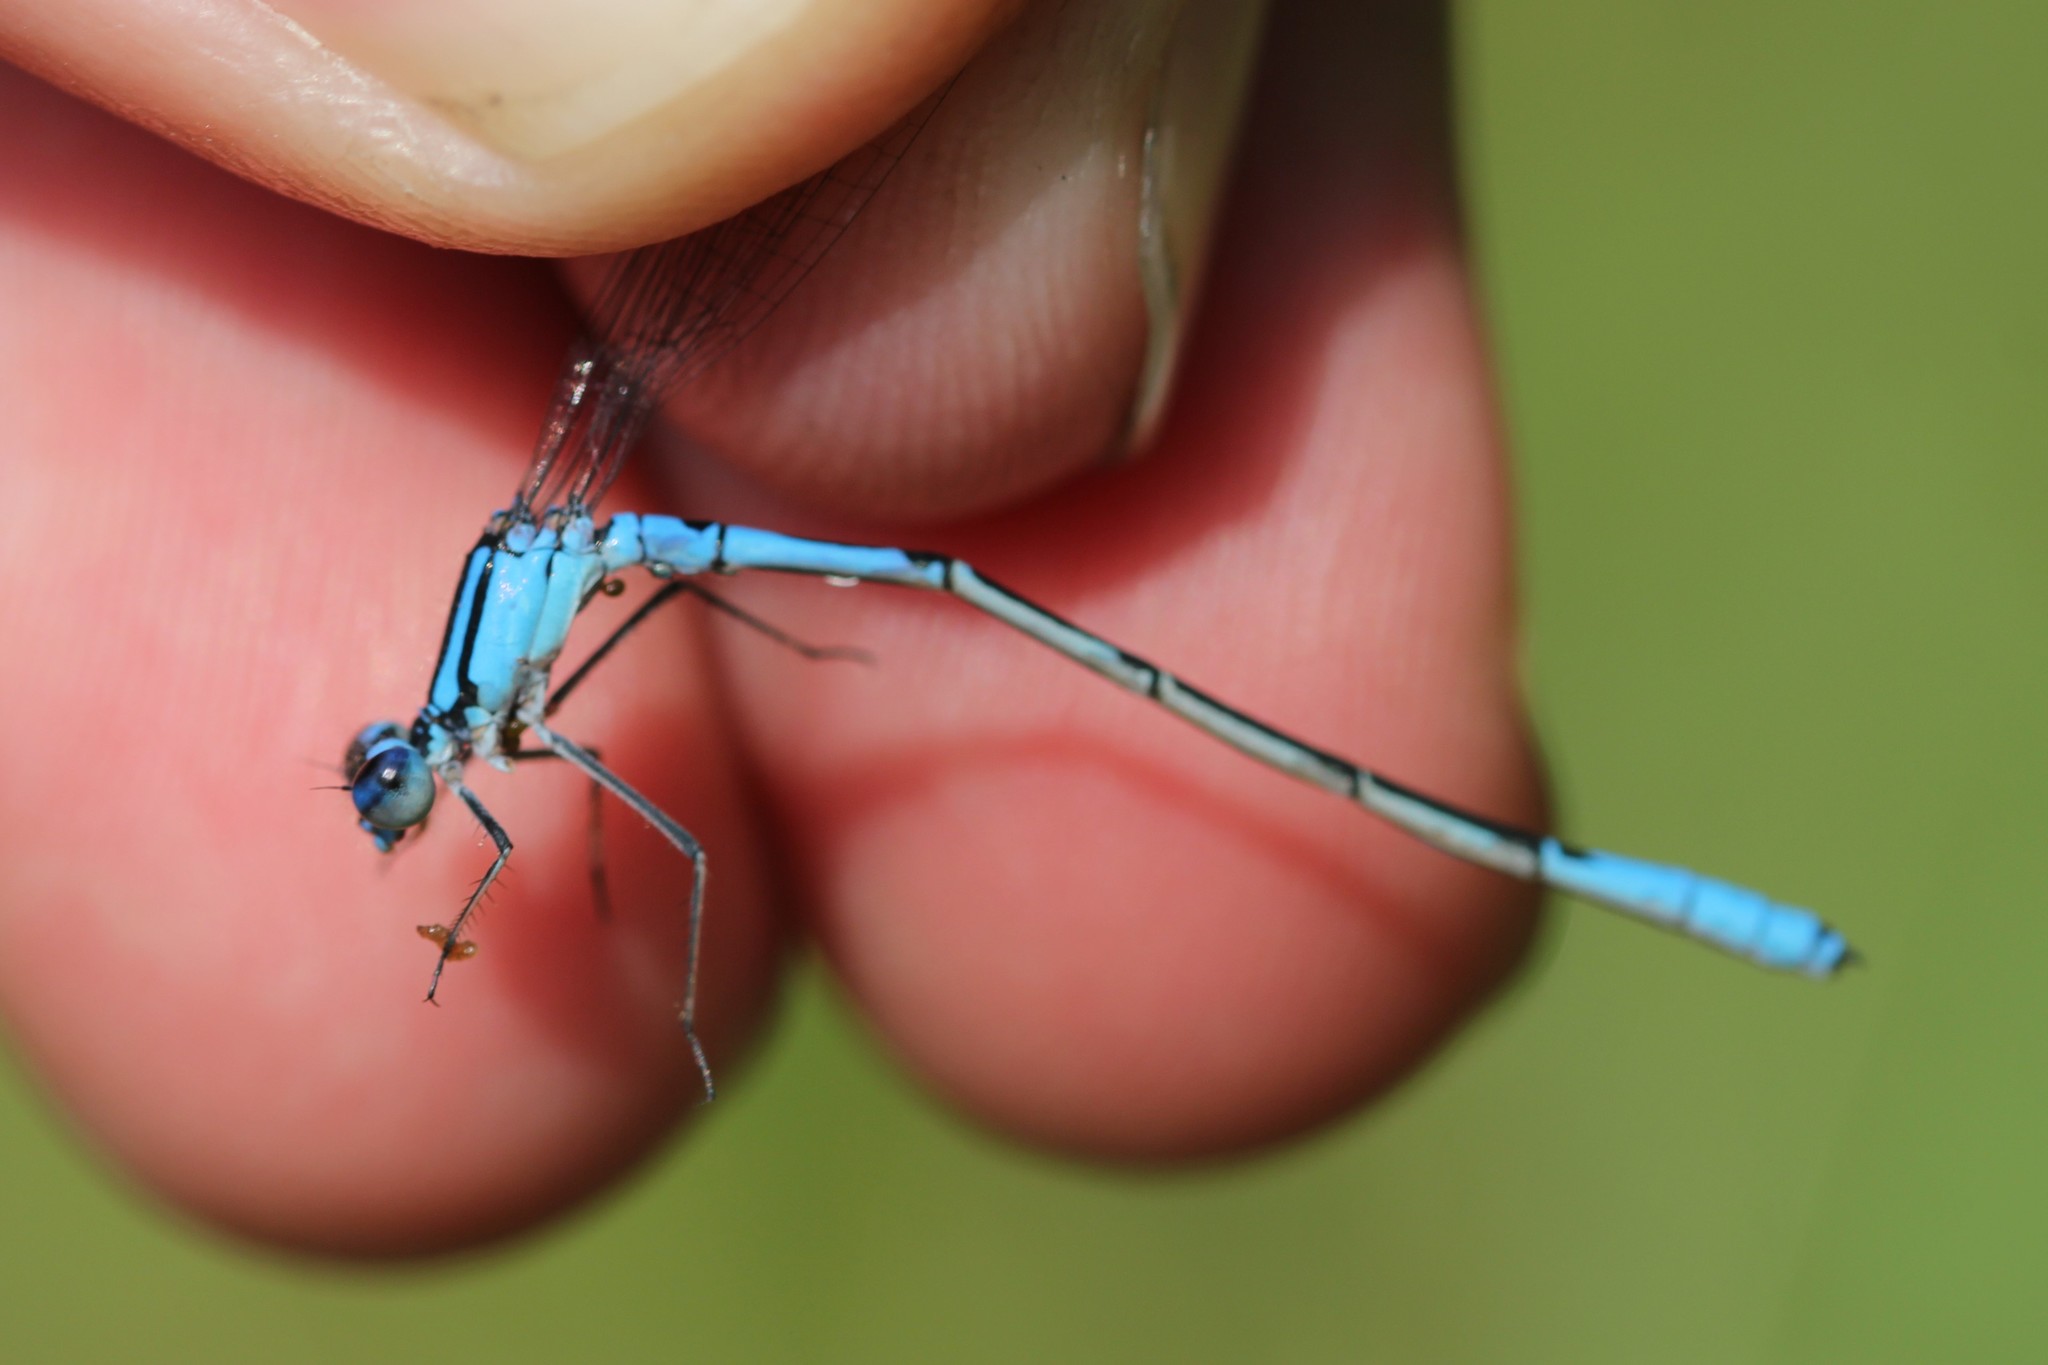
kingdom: Animalia
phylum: Arthropoda
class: Insecta
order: Odonata
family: Coenagrionidae
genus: Enallagma
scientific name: Enallagma aspersum
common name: Azure bluet
